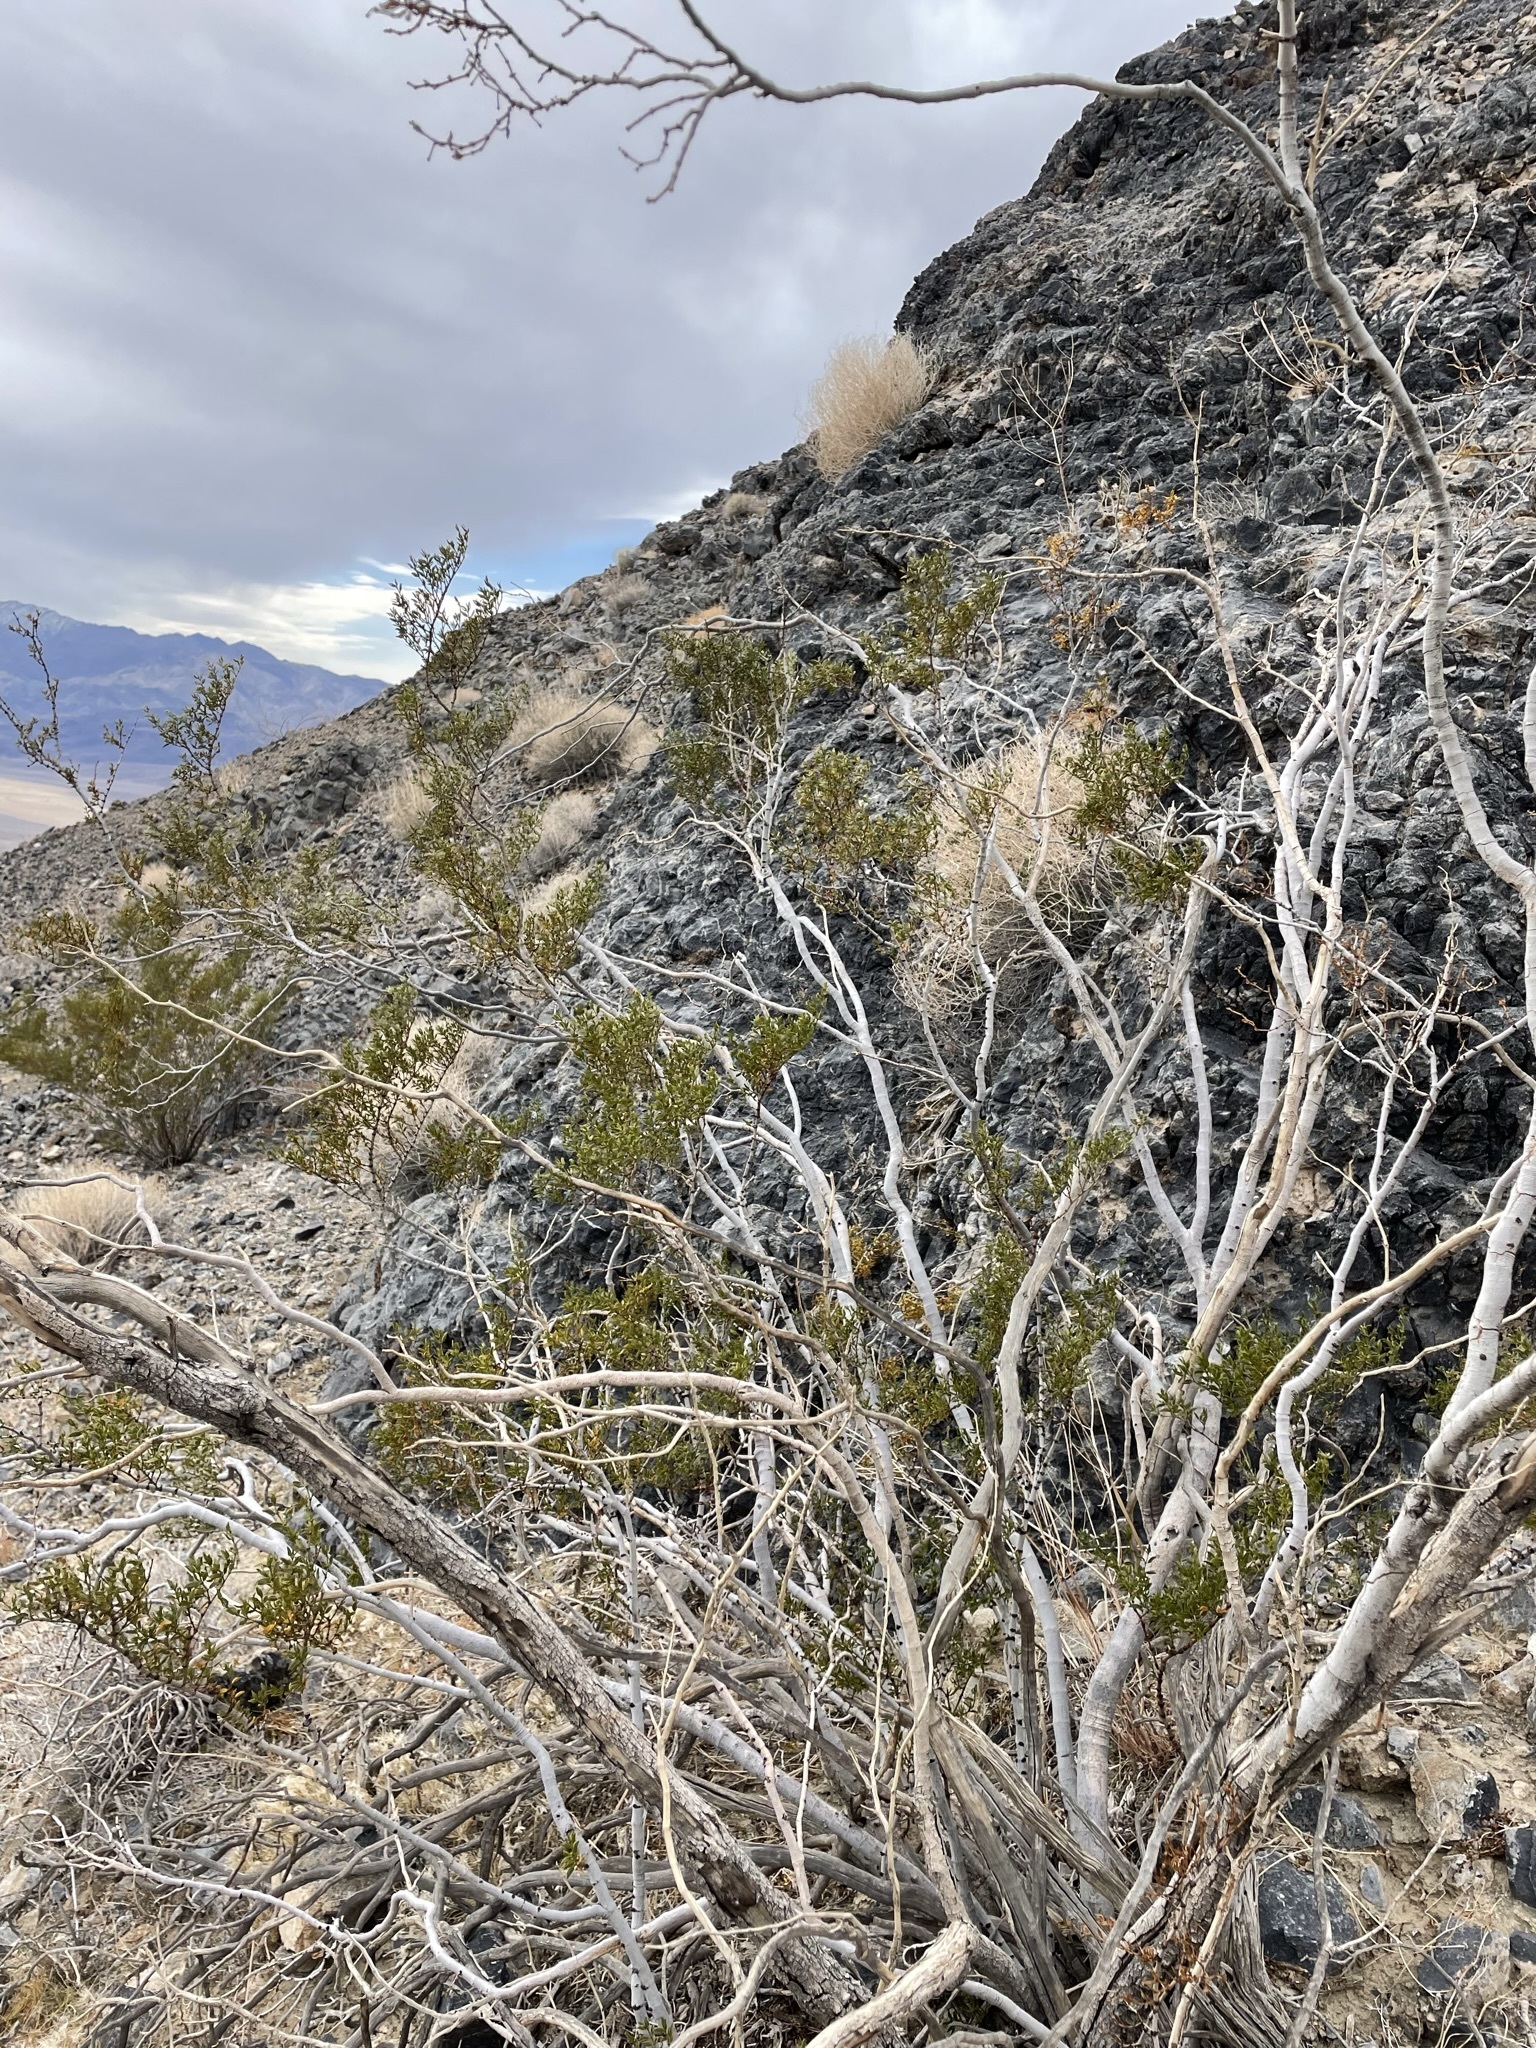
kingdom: Plantae
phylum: Tracheophyta
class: Magnoliopsida
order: Zygophyllales
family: Zygophyllaceae
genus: Larrea
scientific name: Larrea tridentata
